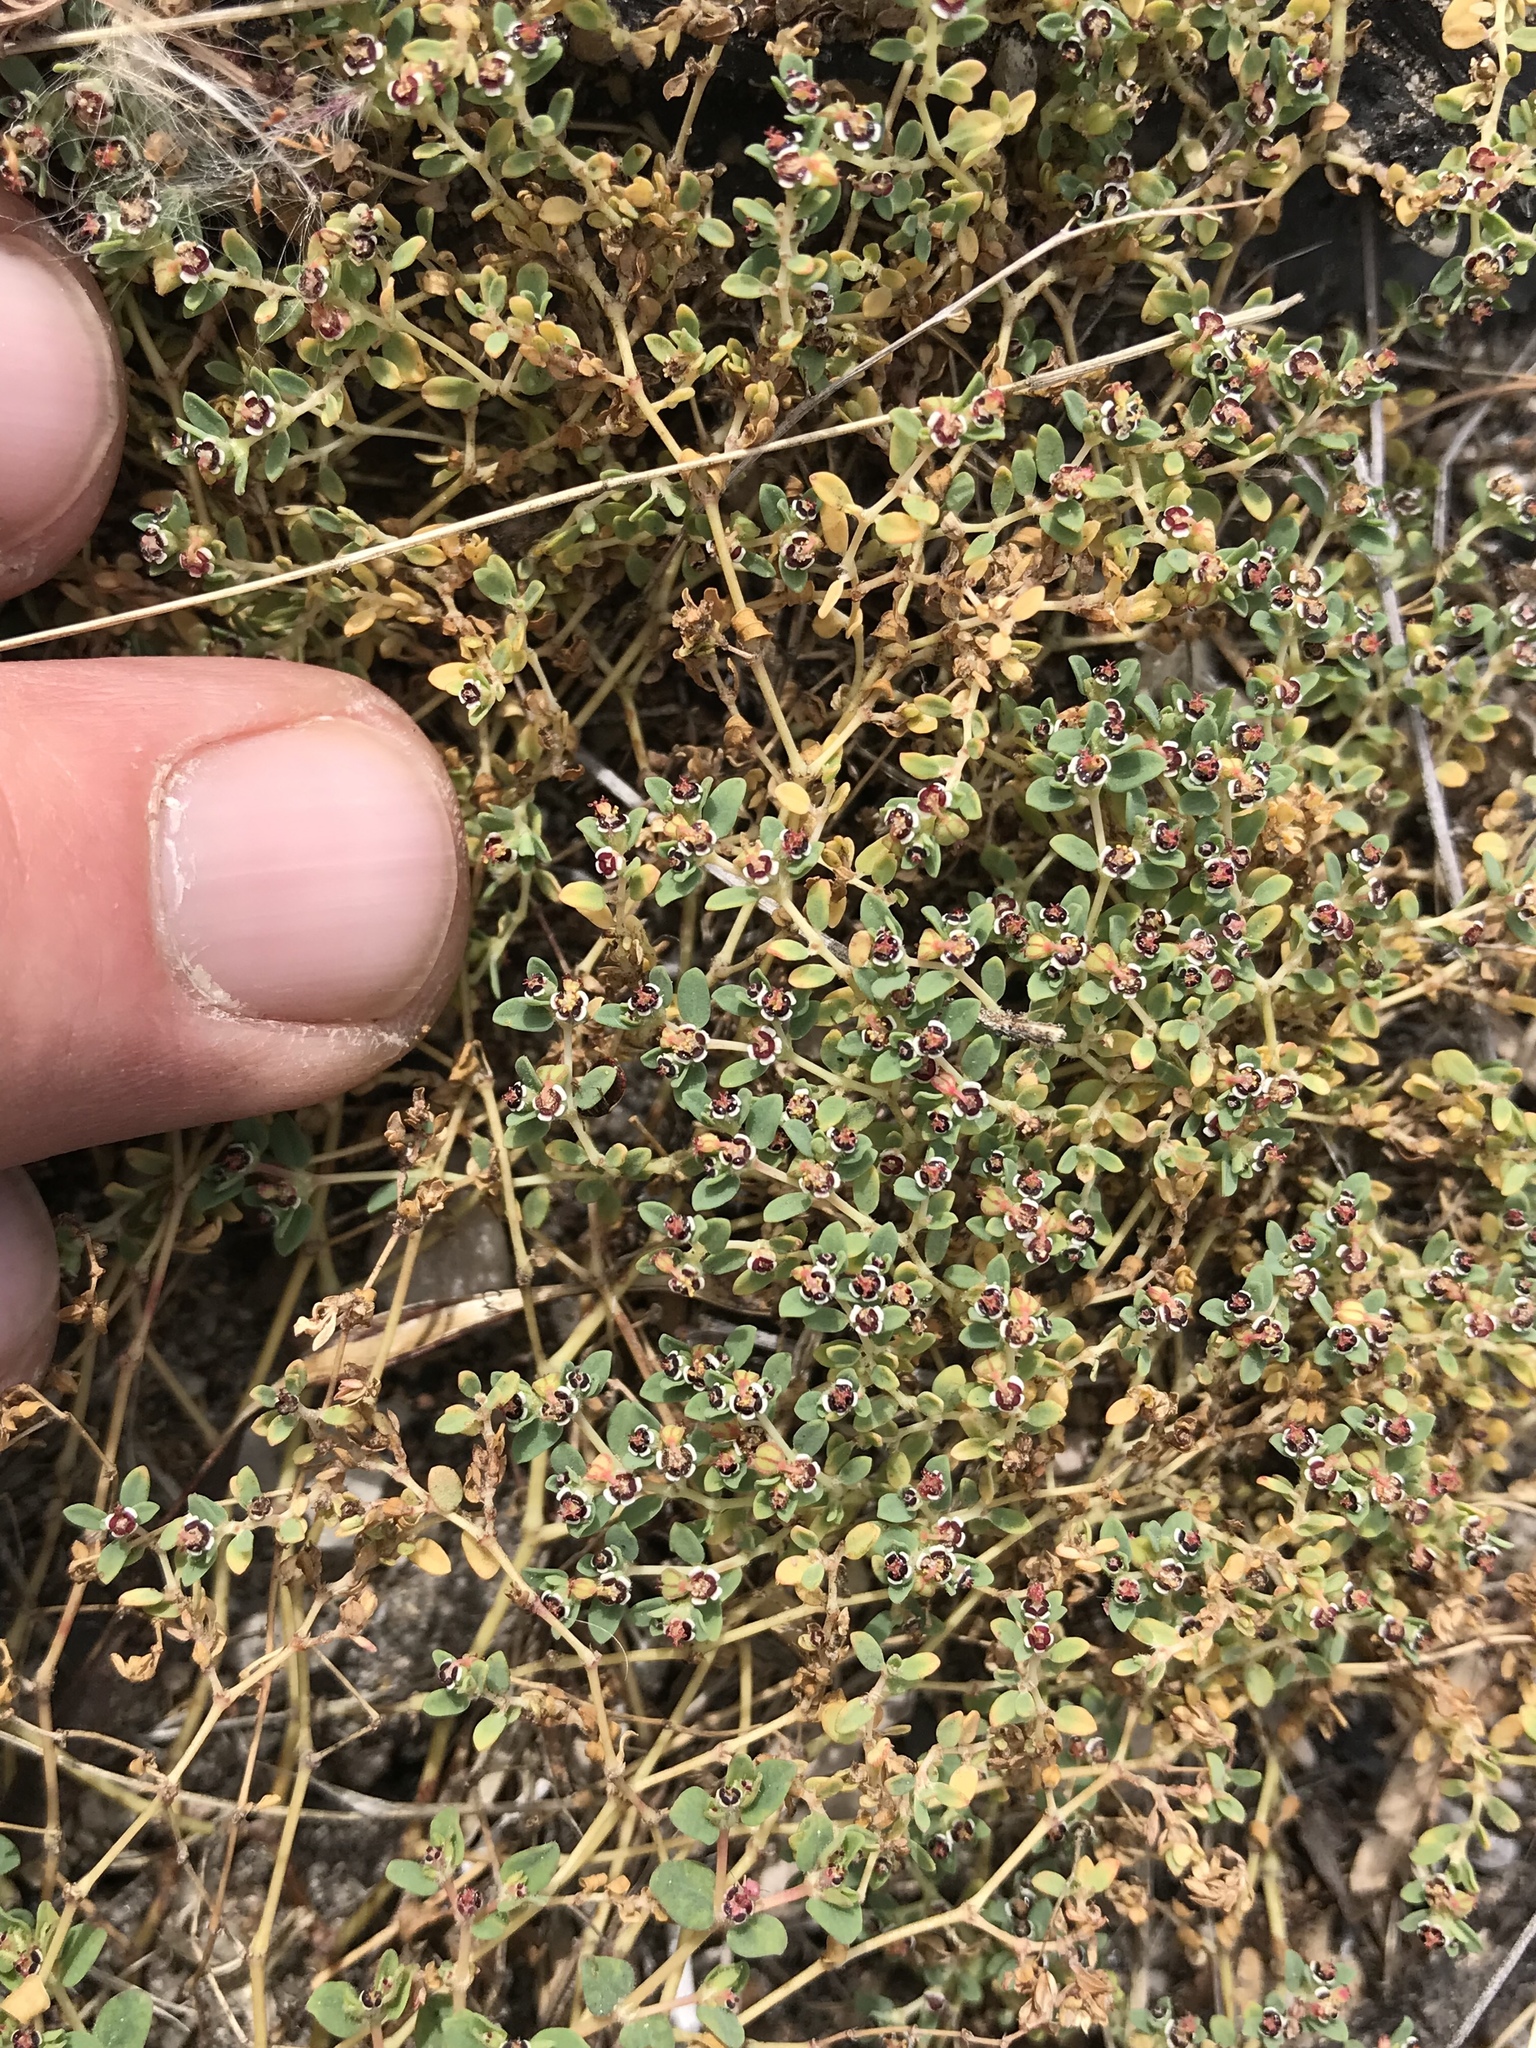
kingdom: Plantae
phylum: Tracheophyta
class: Magnoliopsida
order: Malpighiales
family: Euphorbiaceae
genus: Euphorbia
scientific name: Euphorbia polycarpa
